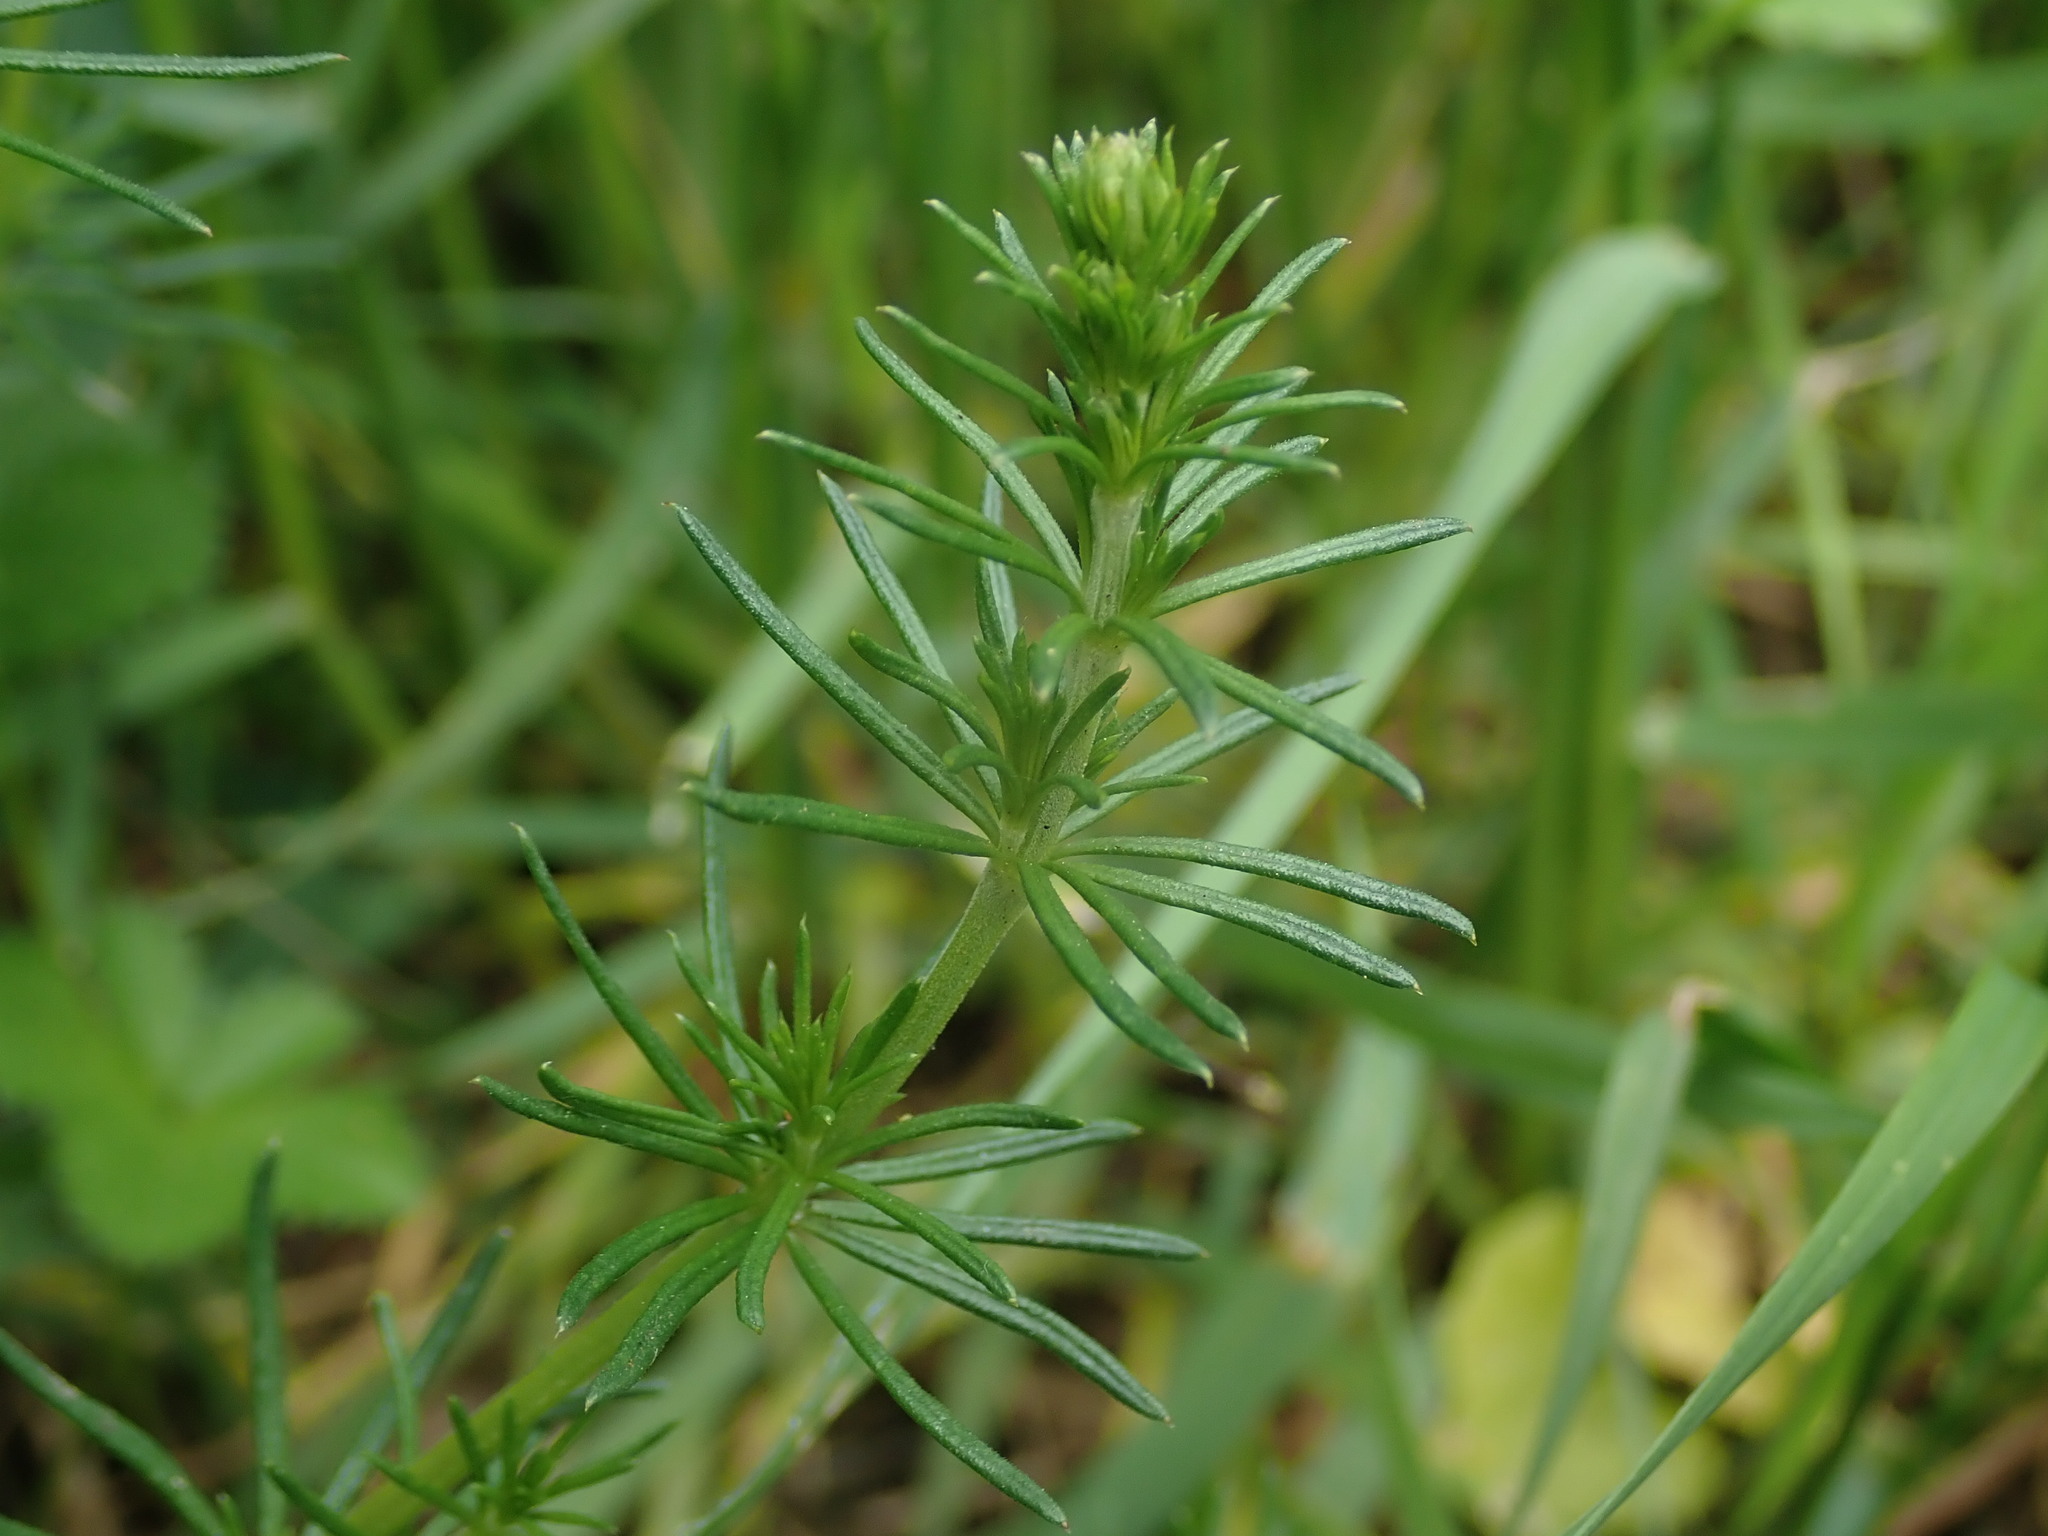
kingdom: Plantae
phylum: Tracheophyta
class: Magnoliopsida
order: Gentianales
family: Rubiaceae
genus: Galium
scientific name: Galium verum
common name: Lady's bedstraw
